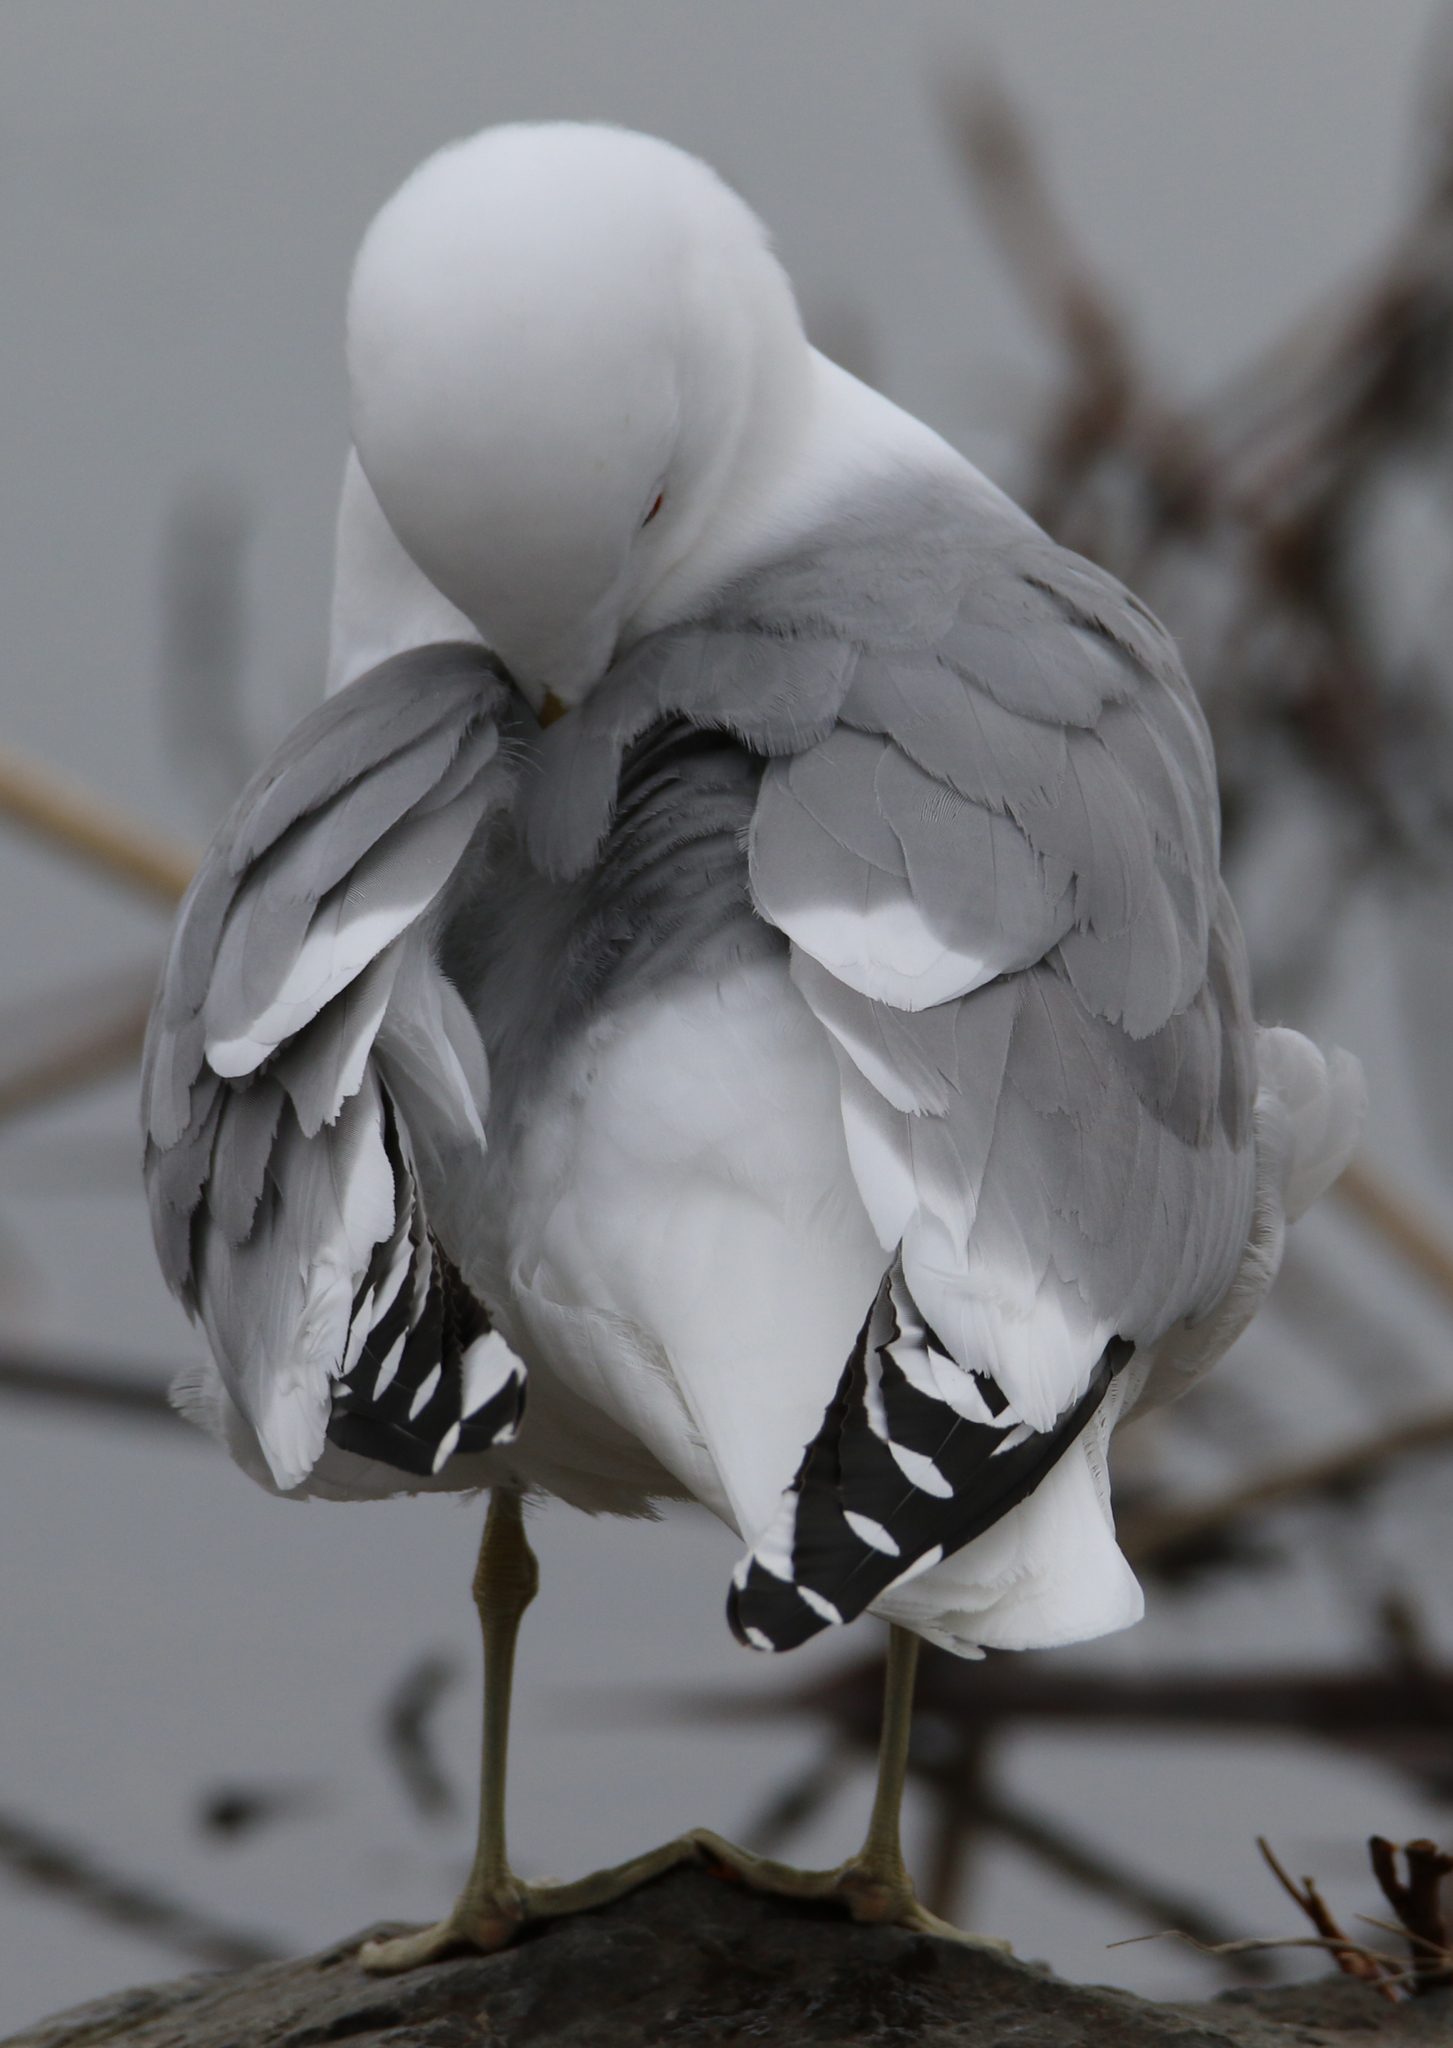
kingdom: Animalia
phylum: Chordata
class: Aves
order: Charadriiformes
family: Laridae
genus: Larus
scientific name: Larus brachyrhynchus
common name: Short-billed gull
